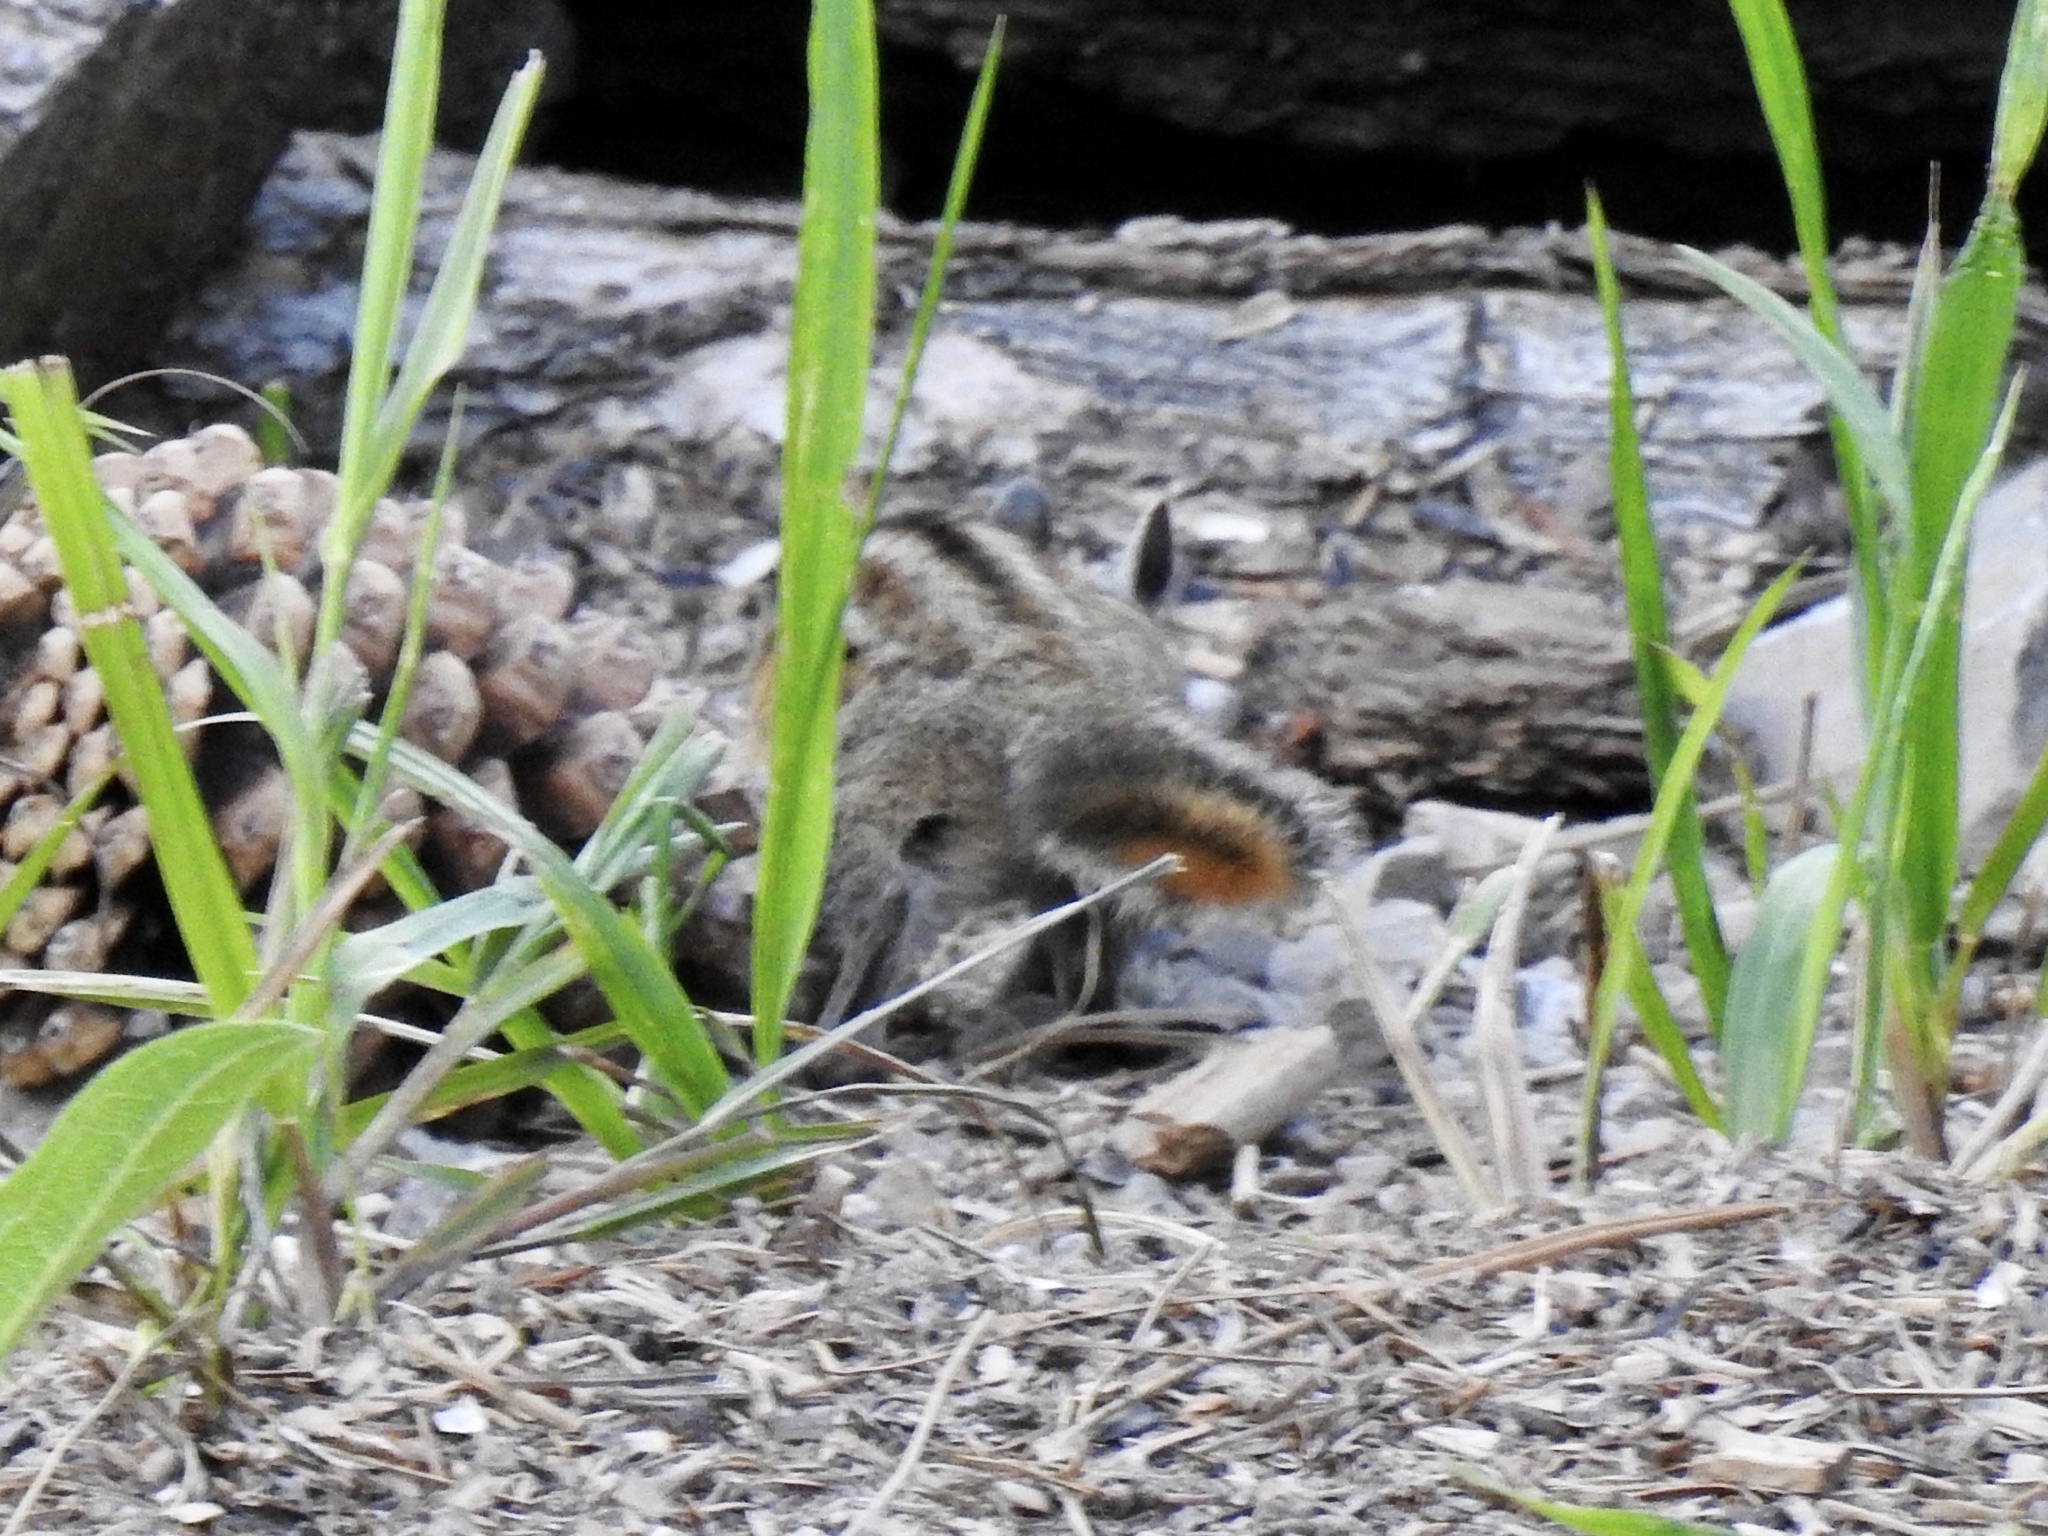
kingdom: Animalia
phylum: Chordata
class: Mammalia
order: Rodentia
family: Sciuridae
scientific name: Sciuridae
